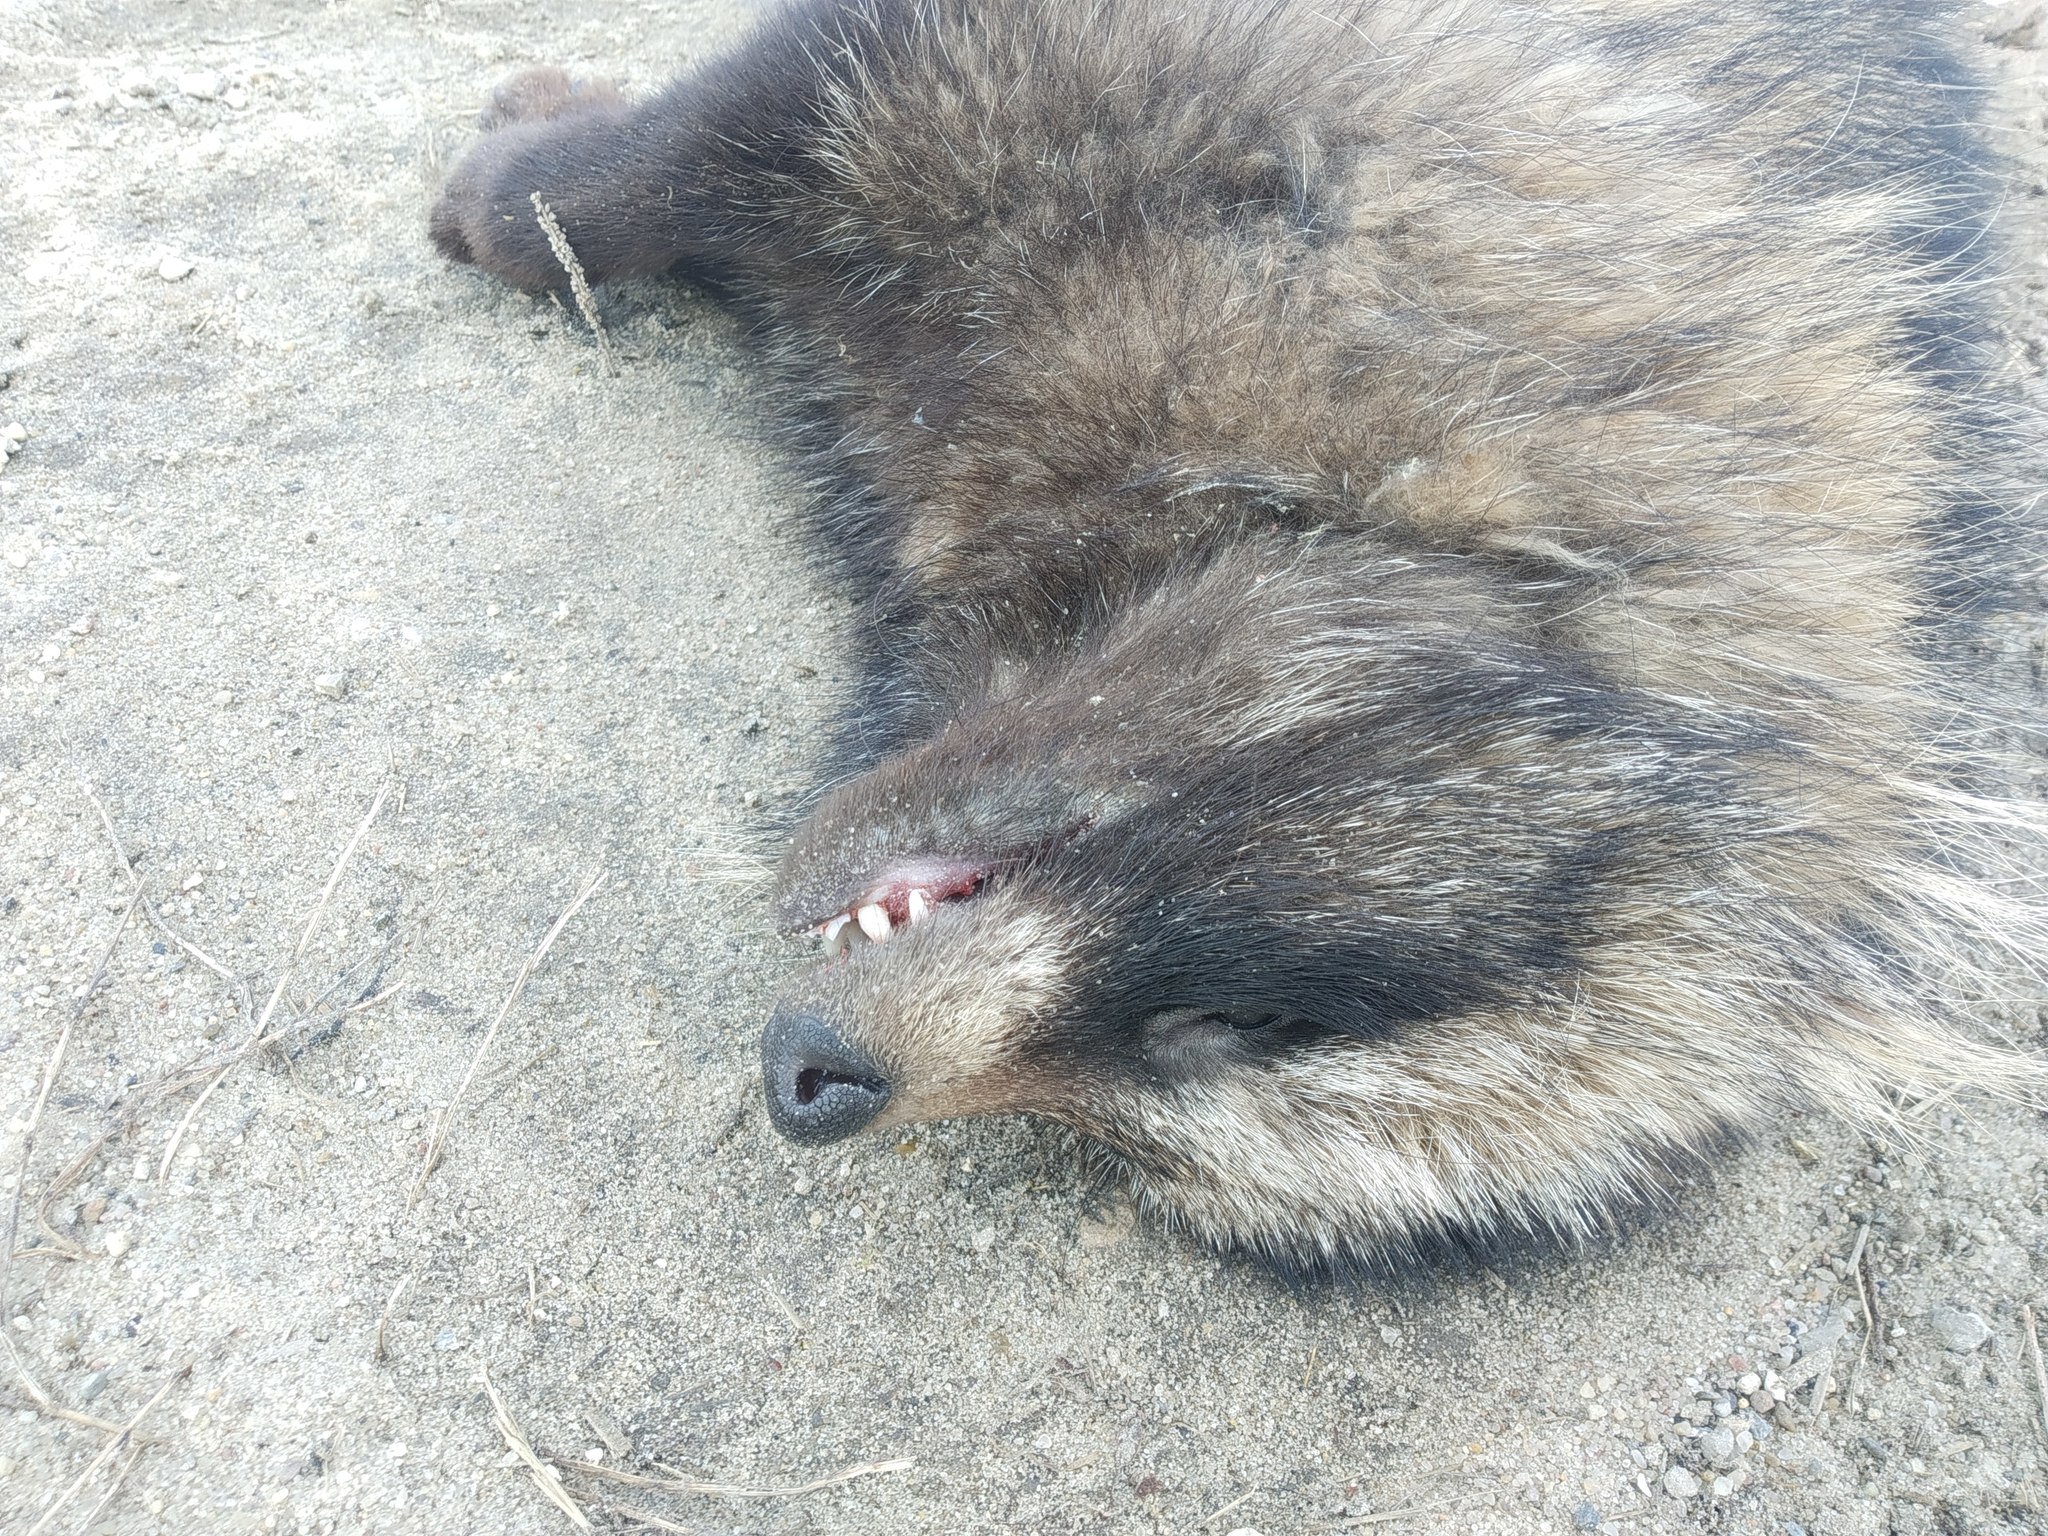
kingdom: Animalia
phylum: Chordata
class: Mammalia
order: Carnivora
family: Canidae
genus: Nyctereutes
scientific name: Nyctereutes procyonoides
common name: Raccoon dog
